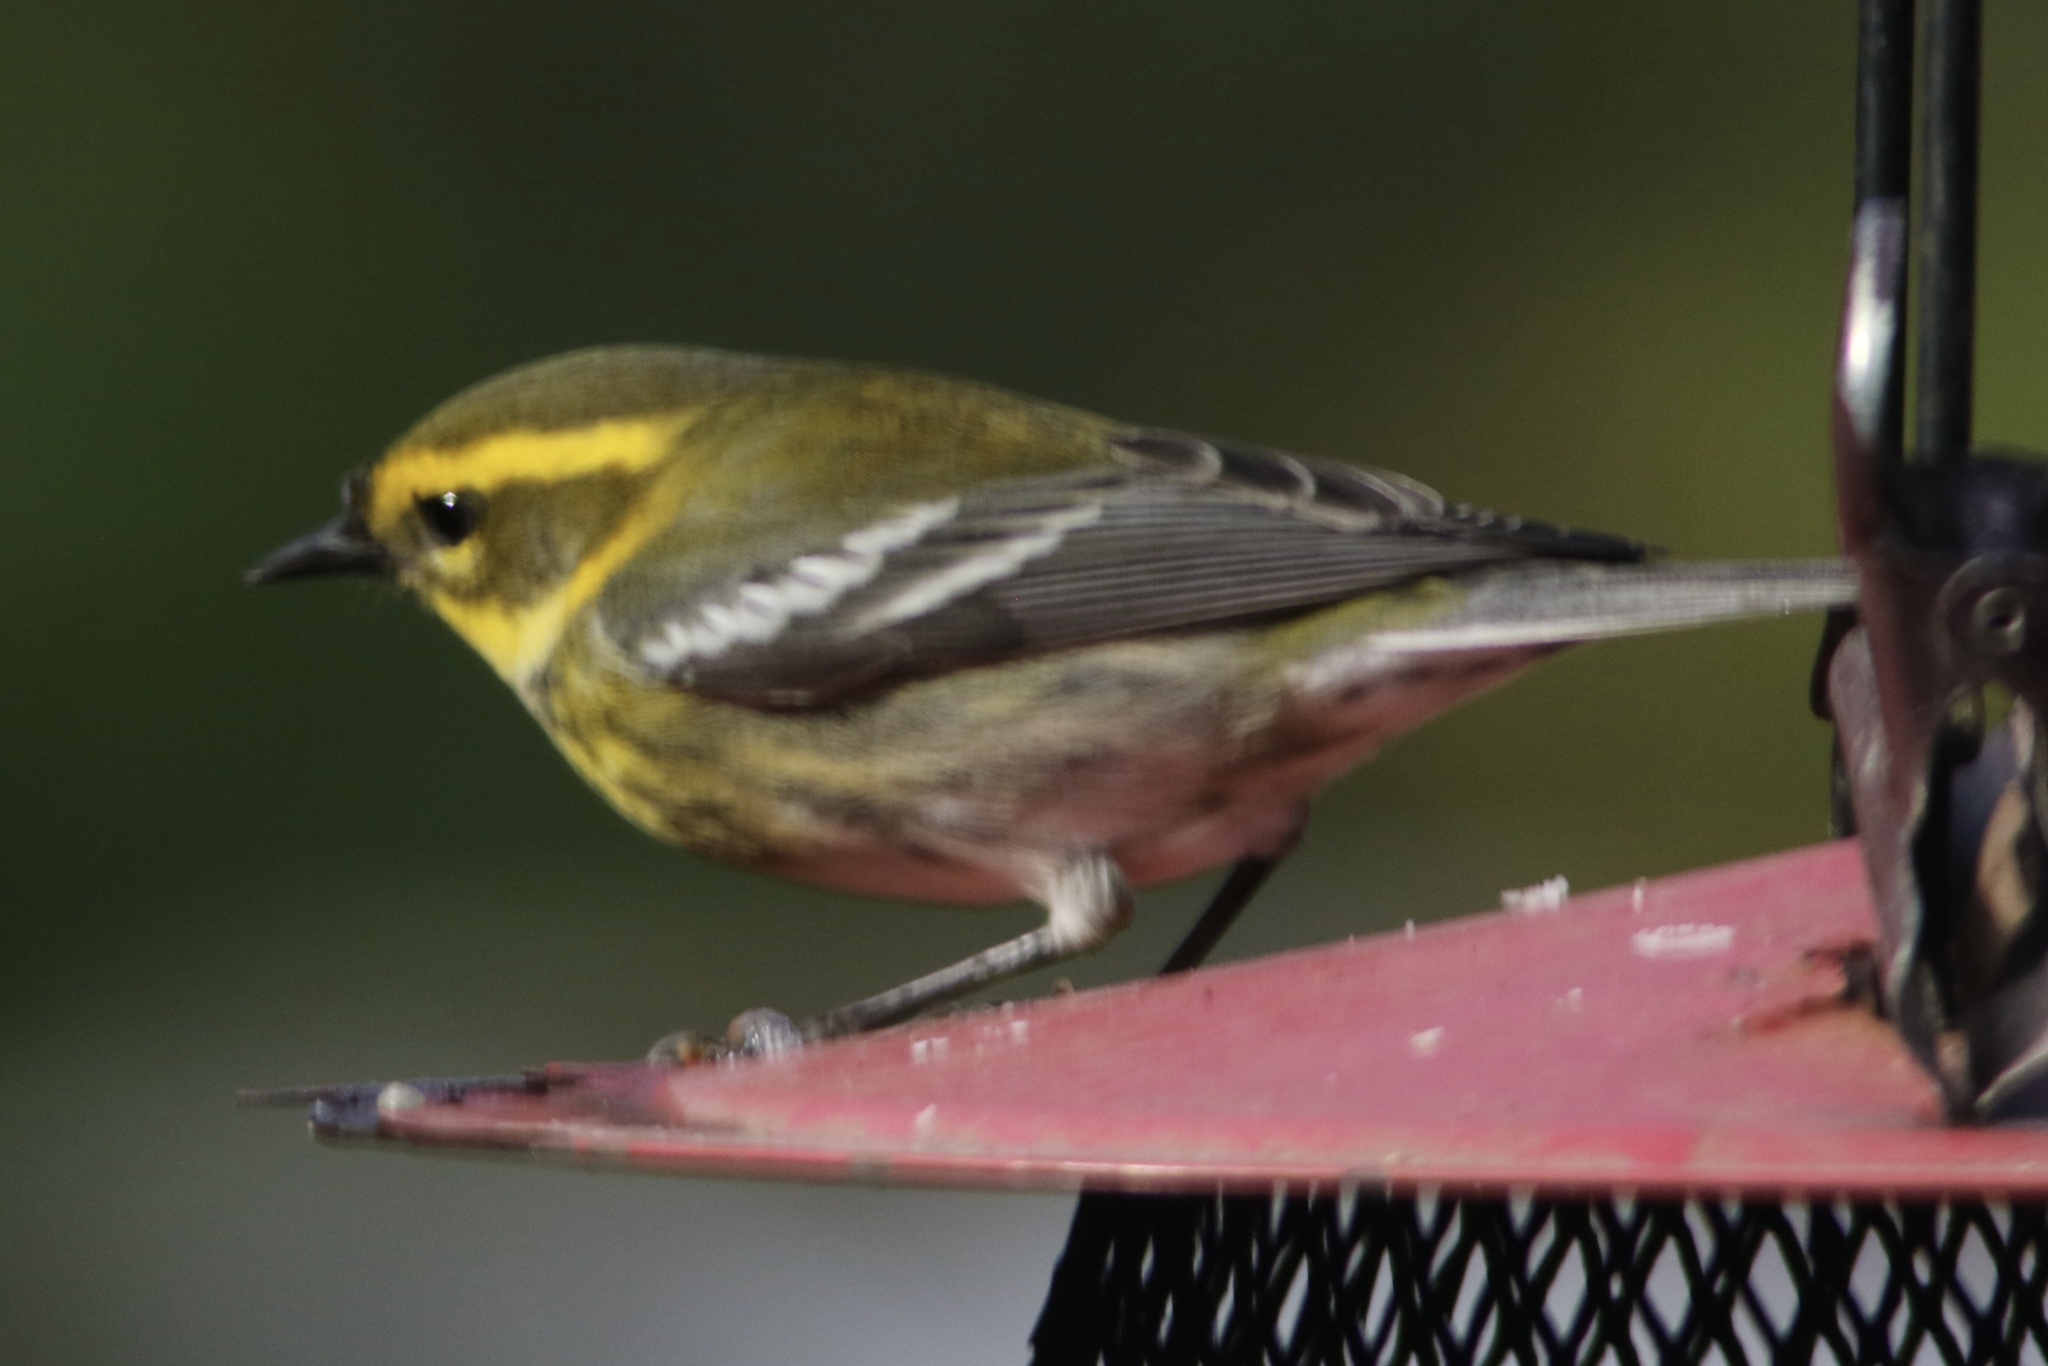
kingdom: Animalia
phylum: Chordata
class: Aves
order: Passeriformes
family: Parulidae
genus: Setophaga
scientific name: Setophaga townsendi
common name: Townsend's warbler
